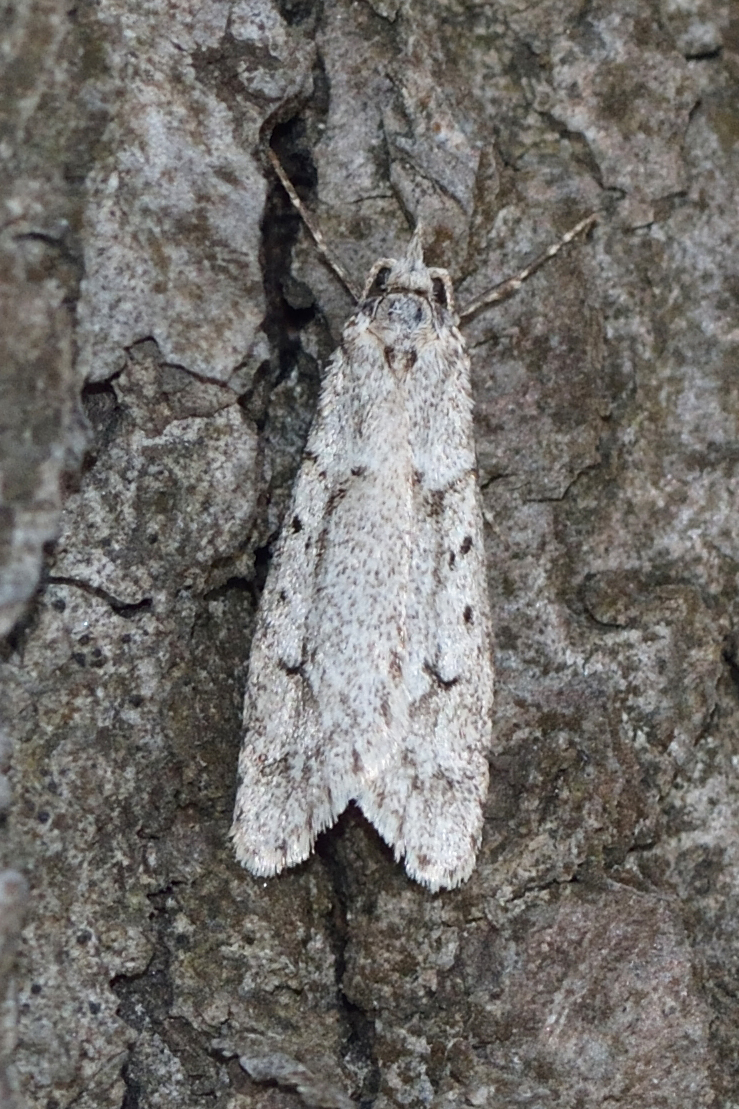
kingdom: Animalia
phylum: Arthropoda
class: Insecta
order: Lepidoptera
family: Lypusidae
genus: Diurnea
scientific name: Diurnea fagella
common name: March tubic
